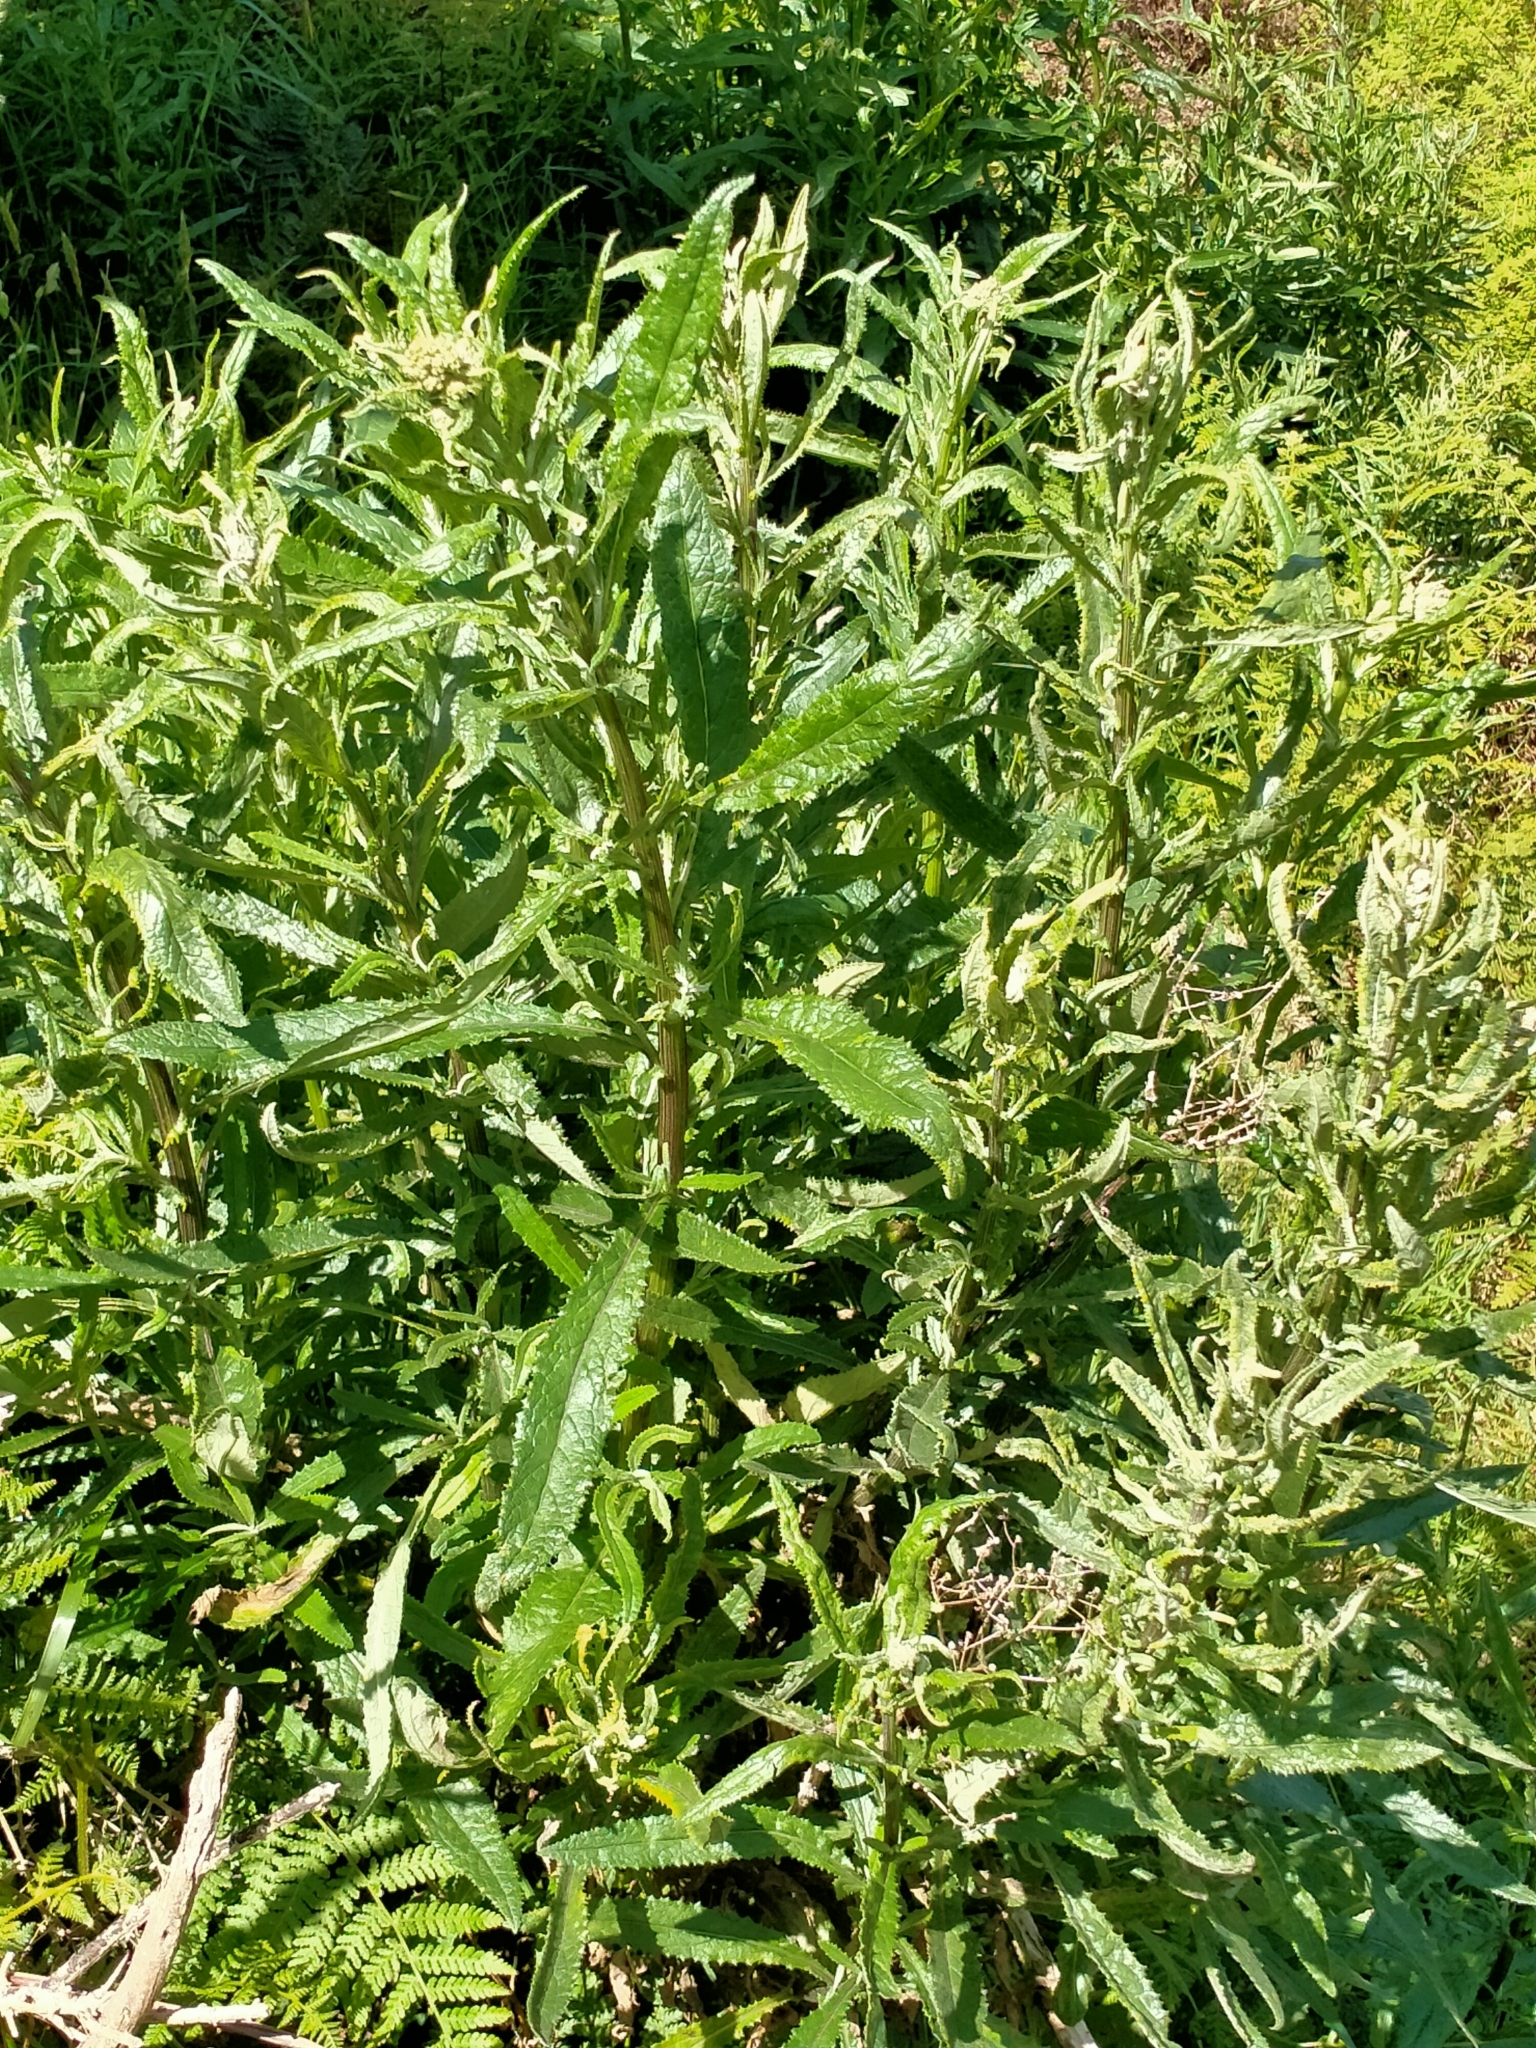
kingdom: Plantae
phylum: Tracheophyta
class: Magnoliopsida
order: Asterales
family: Asteraceae
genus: Senecio
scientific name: Senecio minimus
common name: Toothed fireweed
